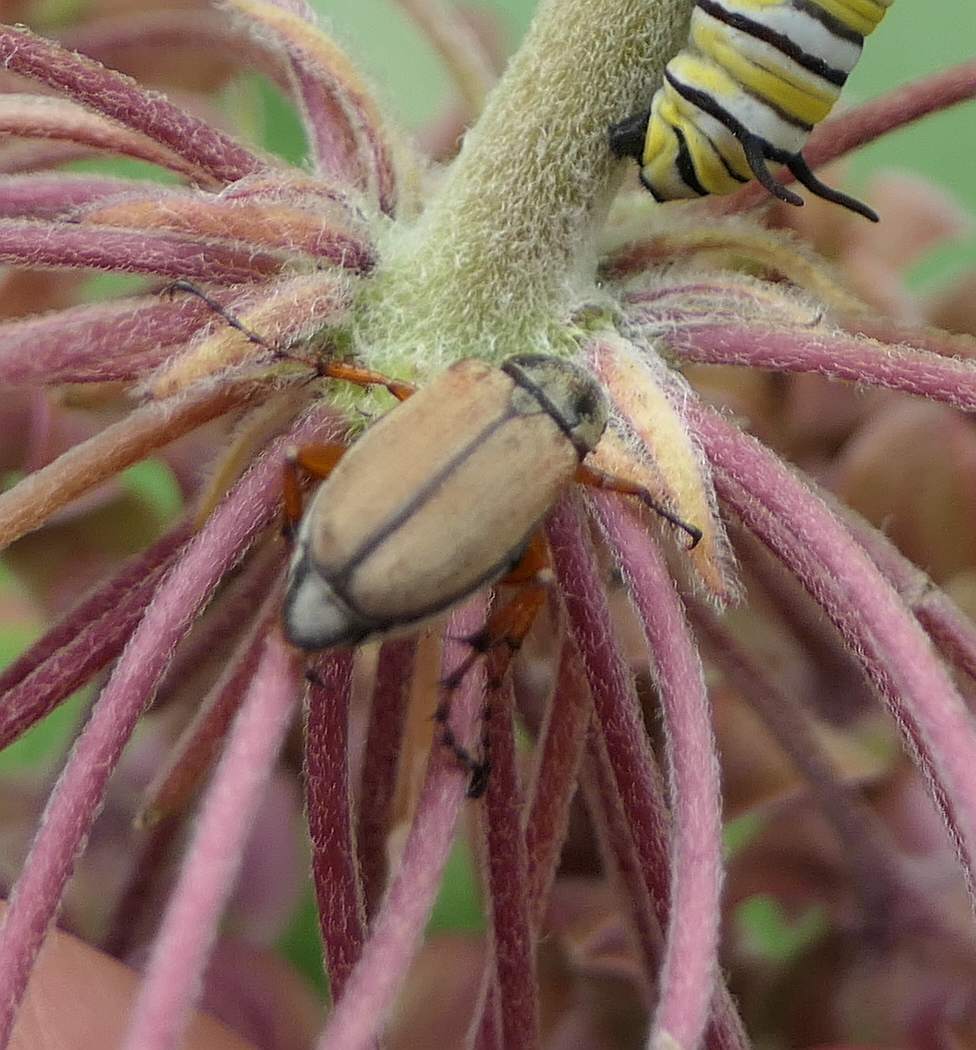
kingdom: Animalia
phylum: Arthropoda
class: Insecta
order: Coleoptera
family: Scarabaeidae
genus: Macrodactylus
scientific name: Macrodactylus subspinosus
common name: American rose chafer
